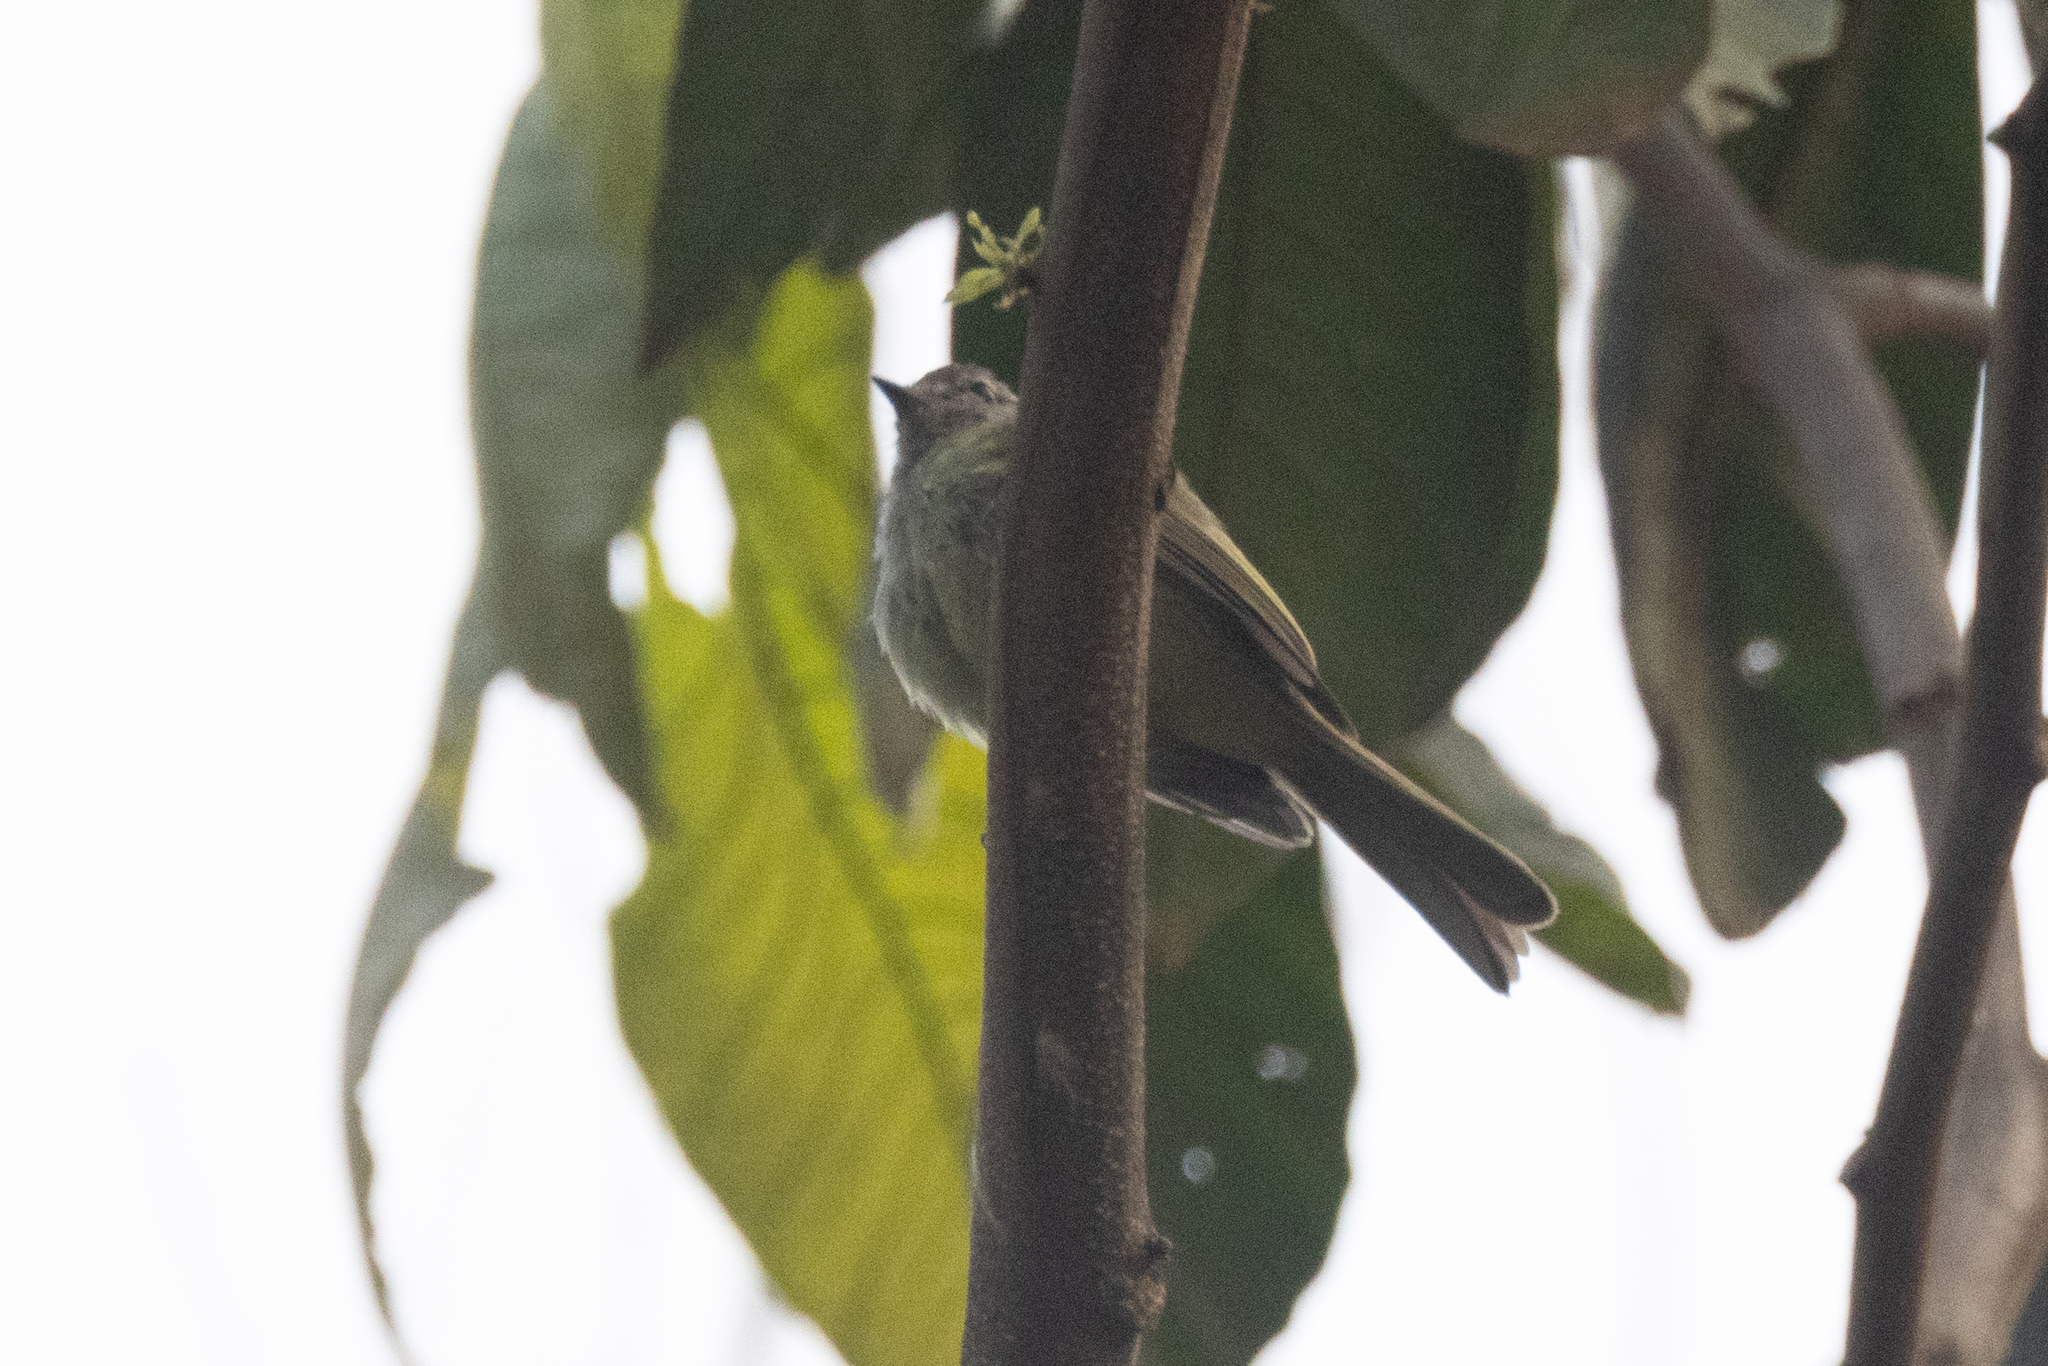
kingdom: Animalia
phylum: Chordata
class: Aves
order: Passeriformes
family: Tyrannidae
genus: Myiopagis
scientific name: Myiopagis viridicata
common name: Greenish elaenia
